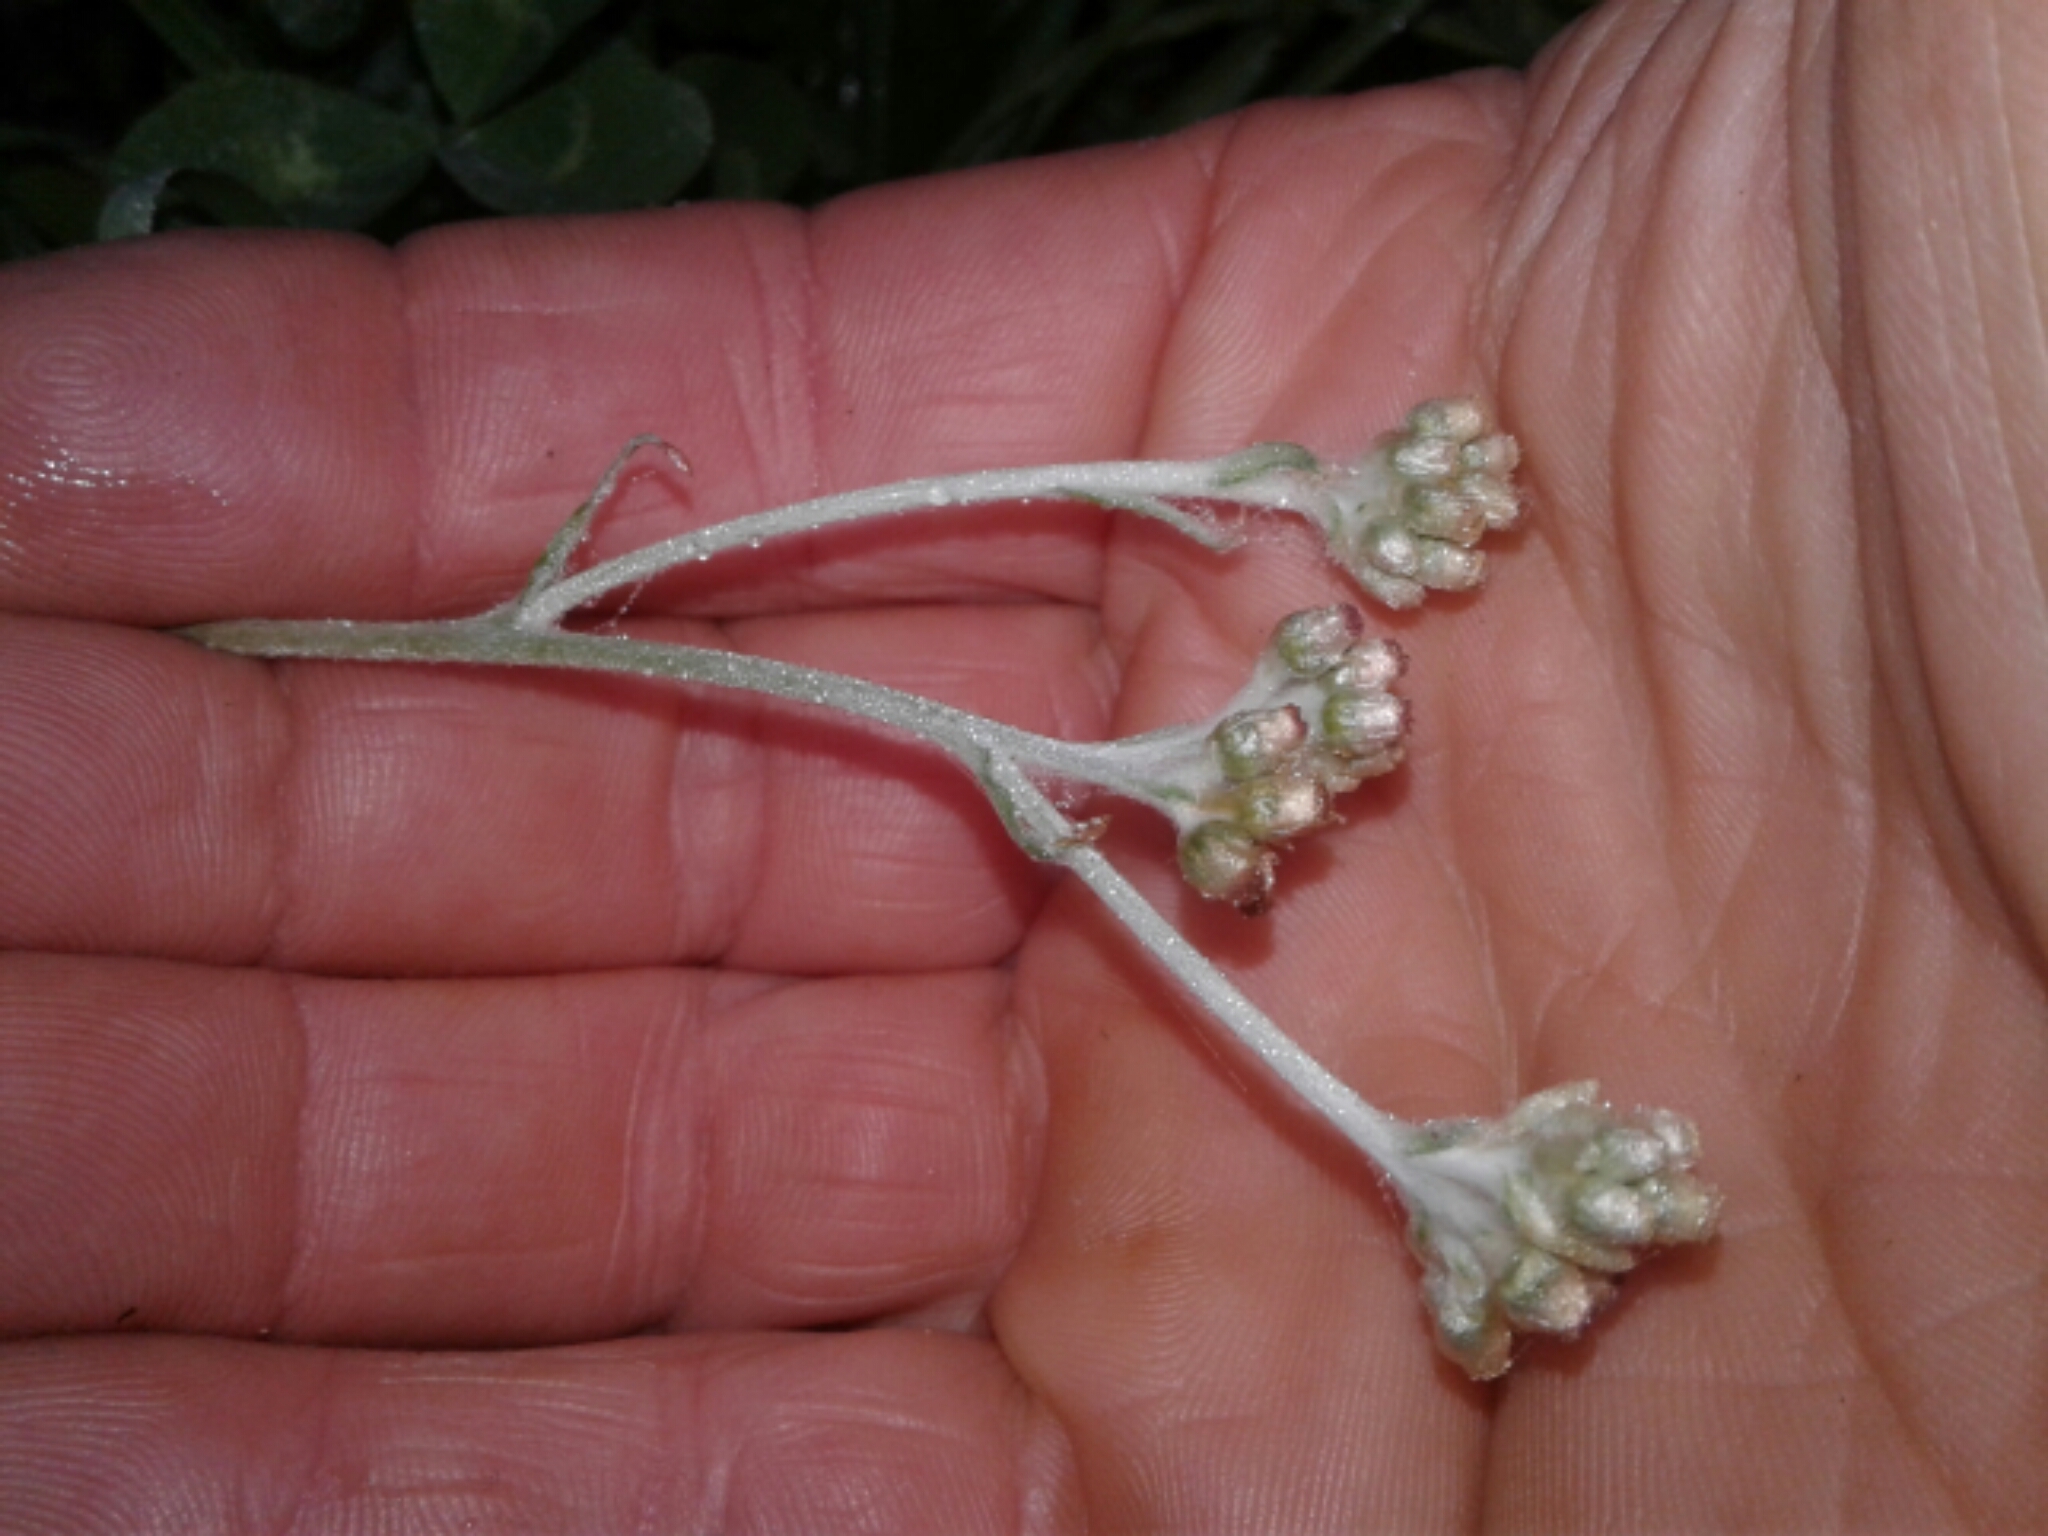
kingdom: Plantae
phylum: Tracheophyta
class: Magnoliopsida
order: Asterales
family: Asteraceae
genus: Helichrysum
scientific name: Helichrysum luteoalbum
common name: Daisy
